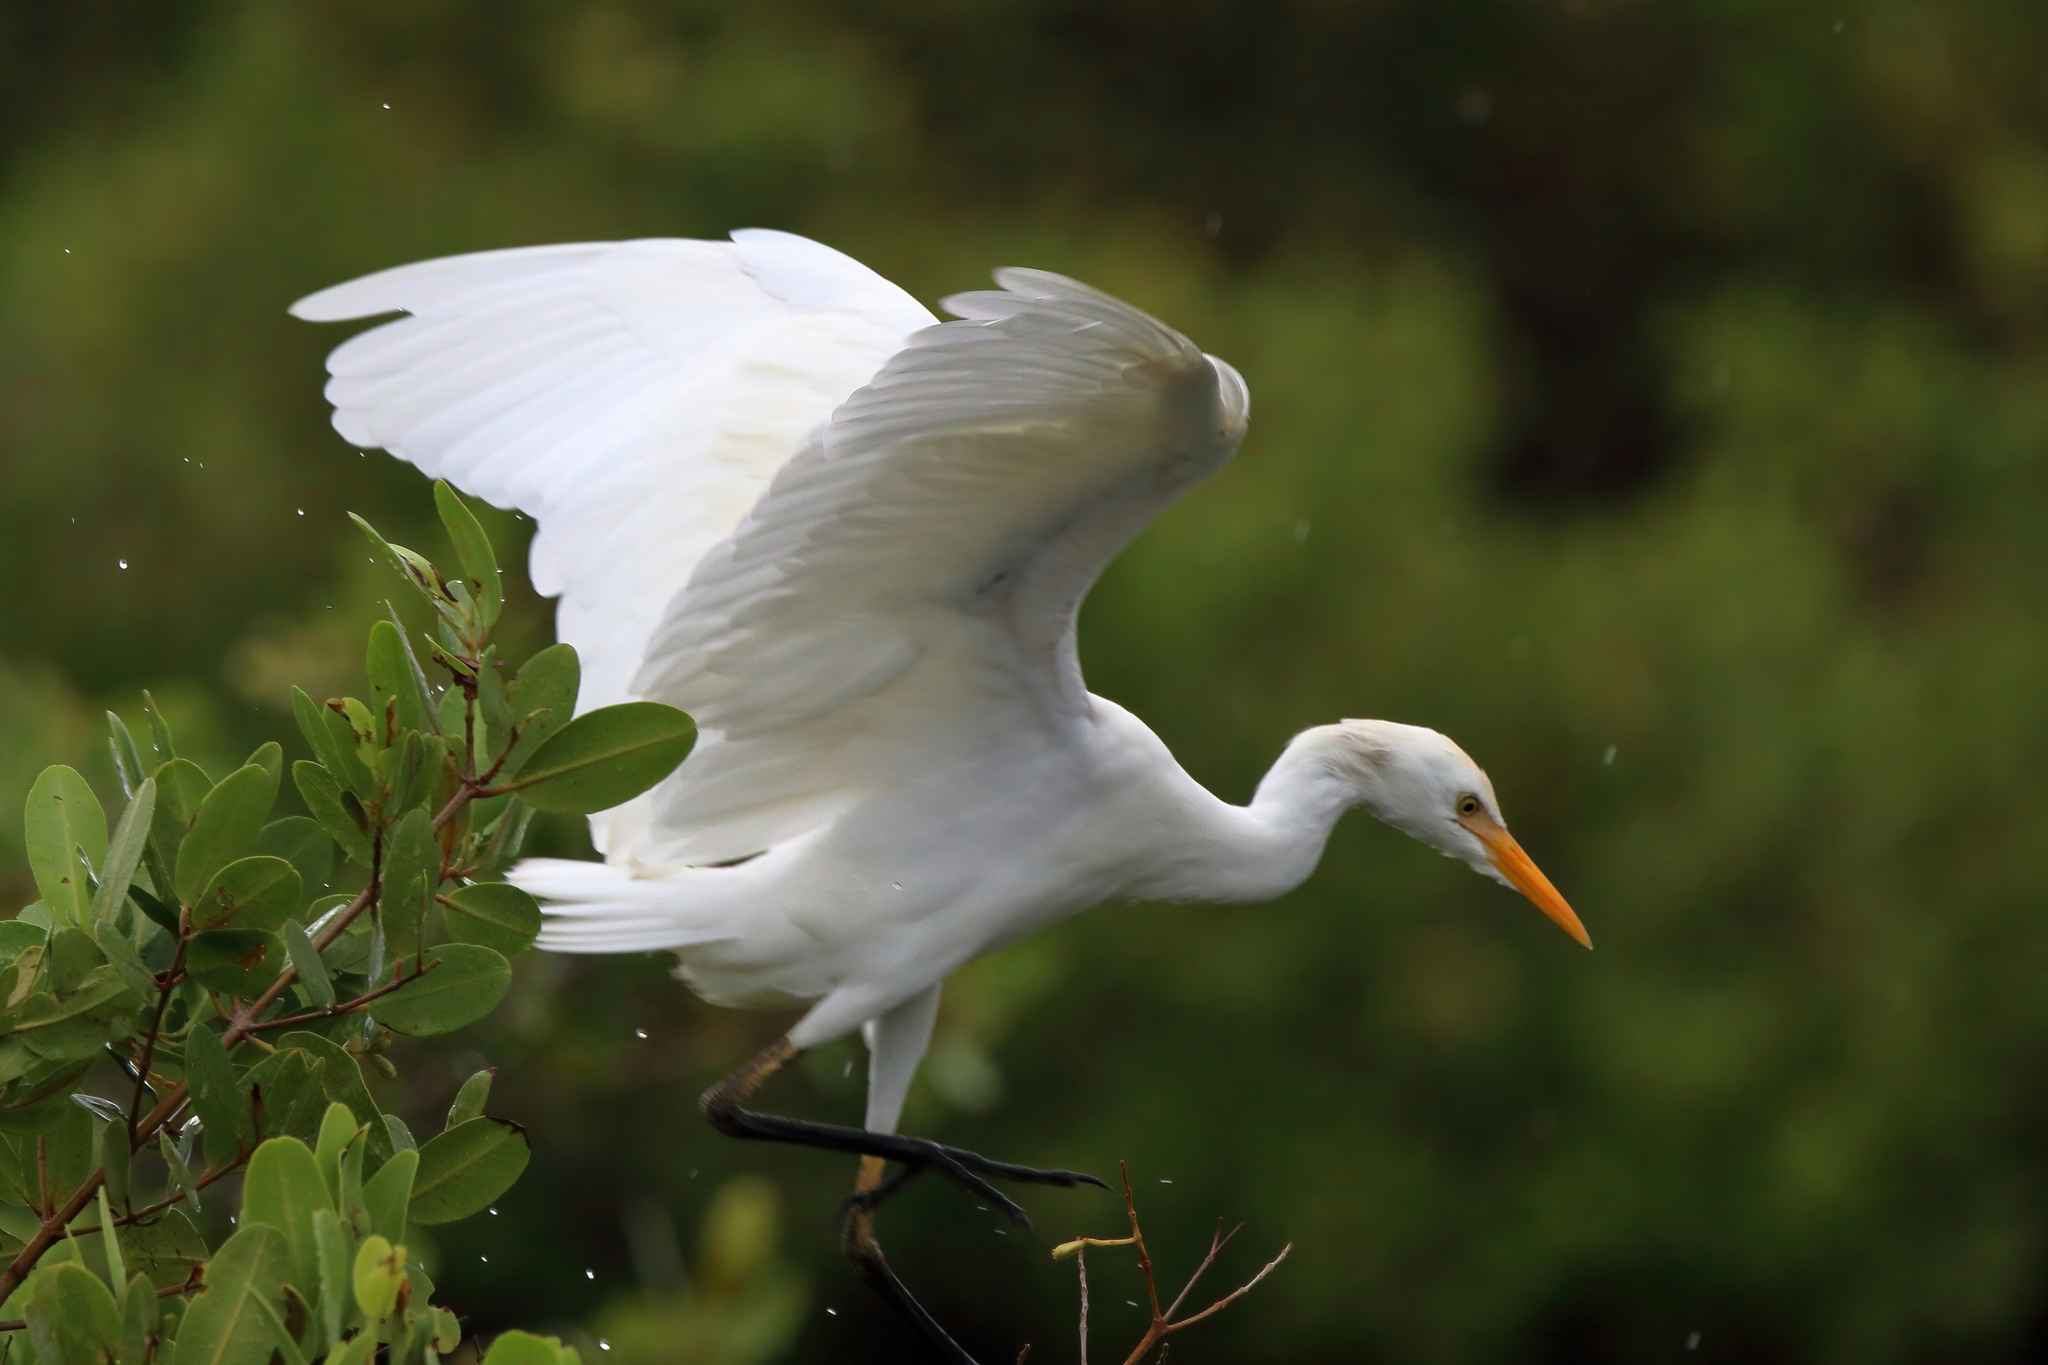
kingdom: Animalia
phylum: Chordata
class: Aves
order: Pelecaniformes
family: Ardeidae
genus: Bubulcus
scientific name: Bubulcus ibis
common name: Cattle egret
